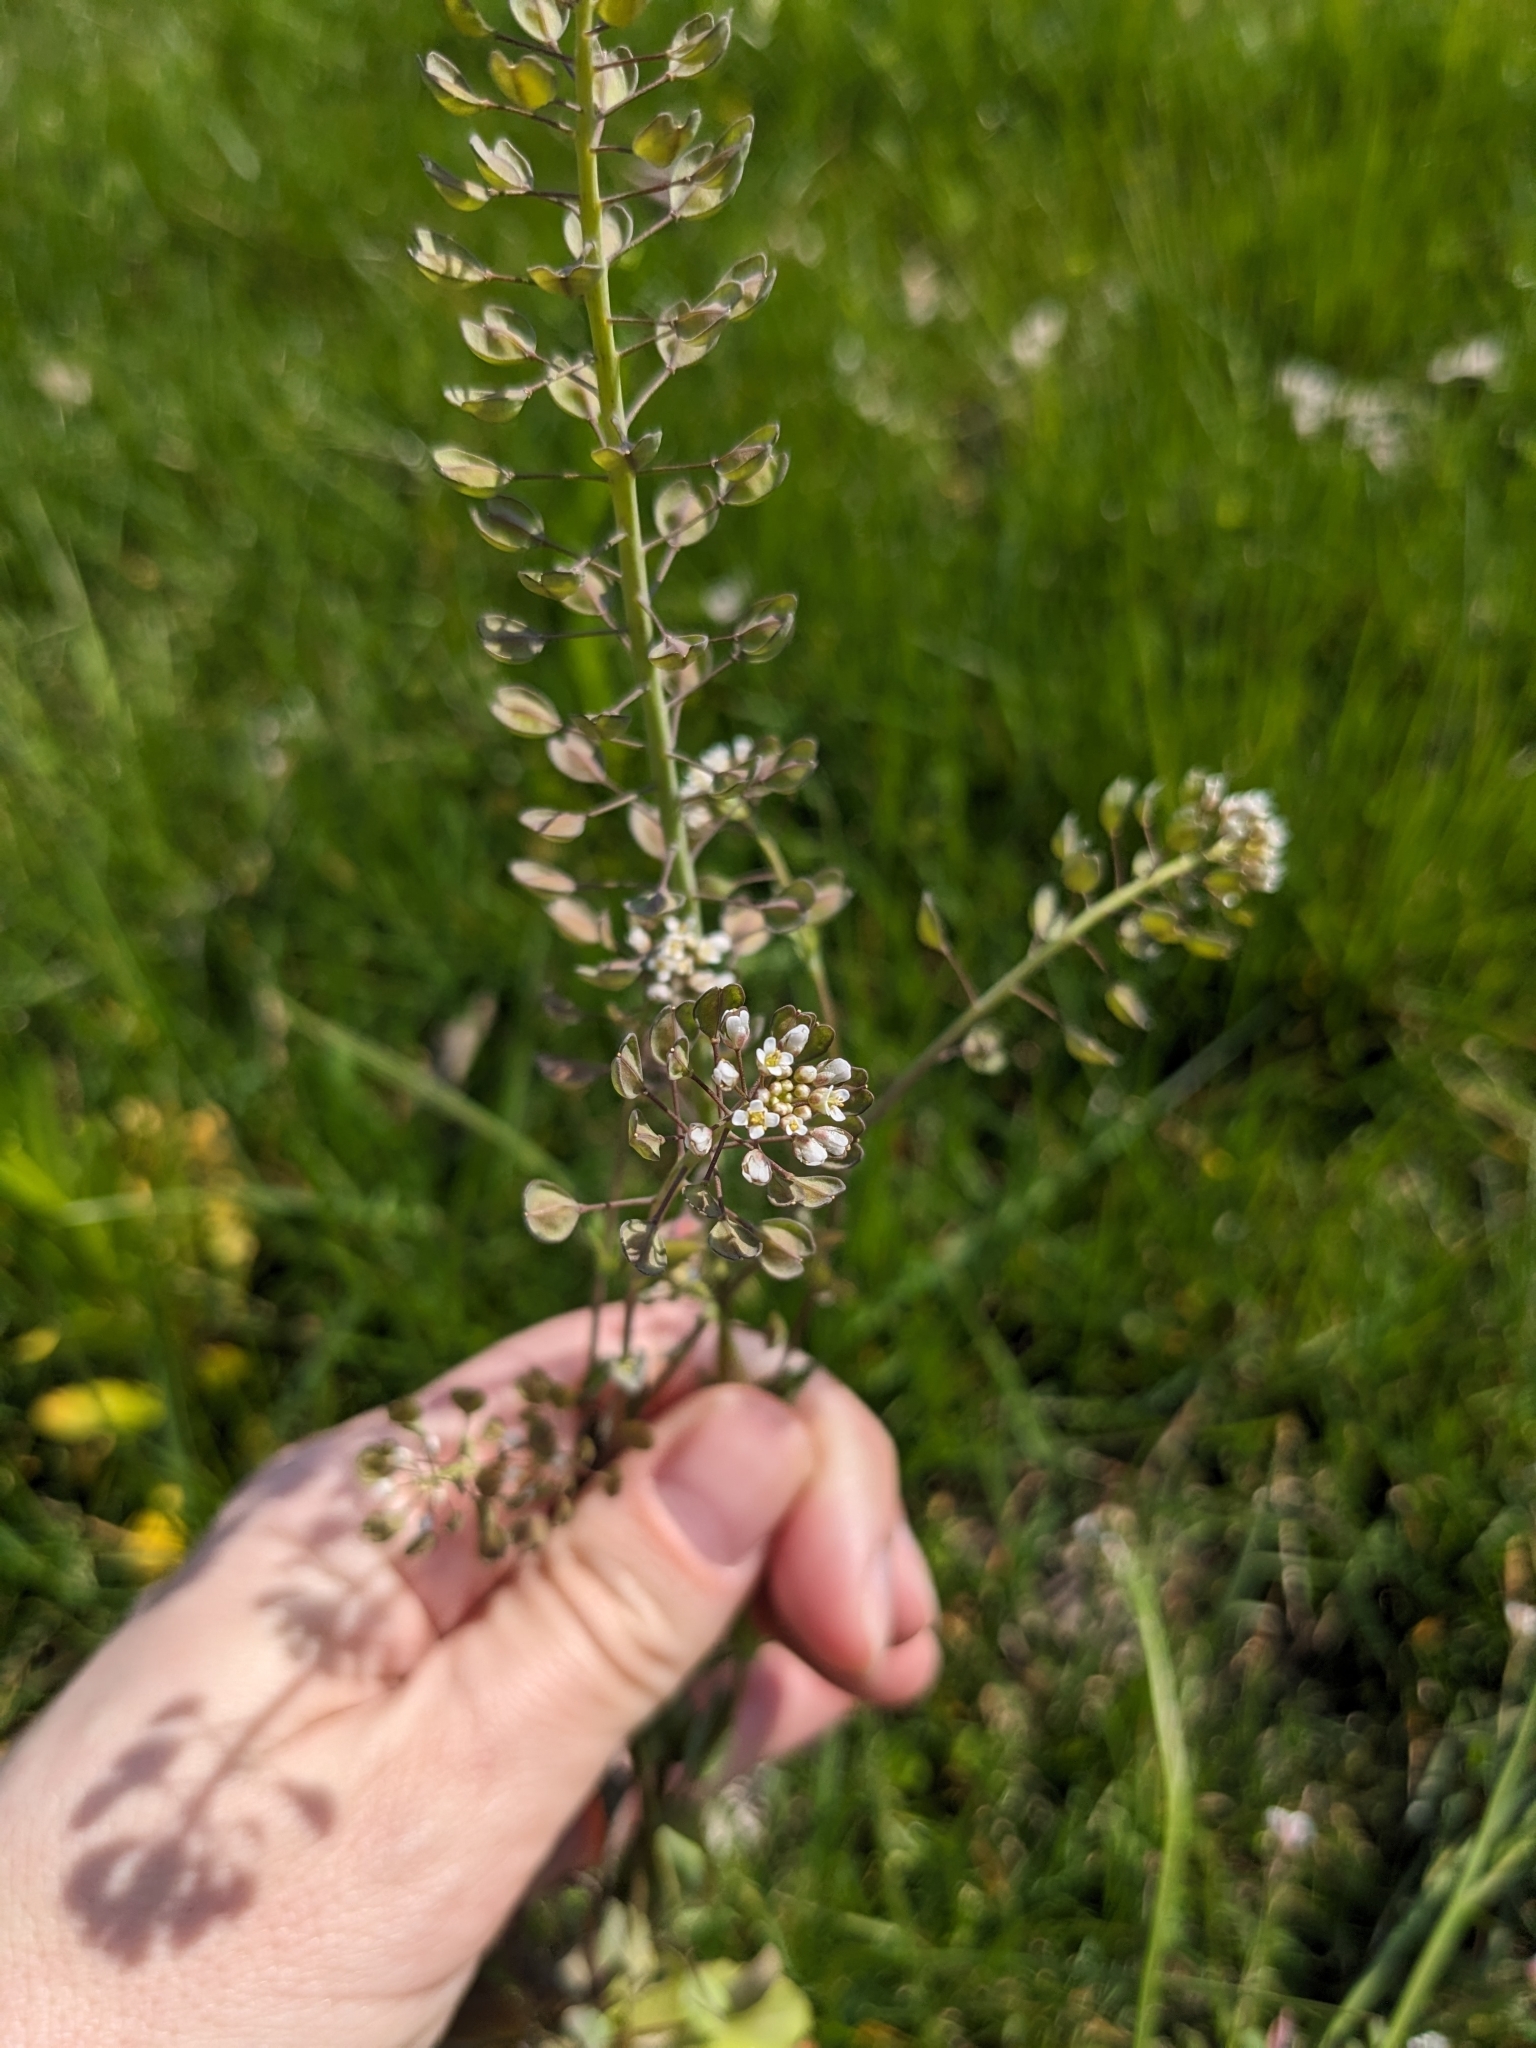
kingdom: Plantae
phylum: Tracheophyta
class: Magnoliopsida
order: Brassicales
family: Brassicaceae
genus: Noccaea
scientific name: Noccaea perfoliata
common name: Perfoliate pennycress
